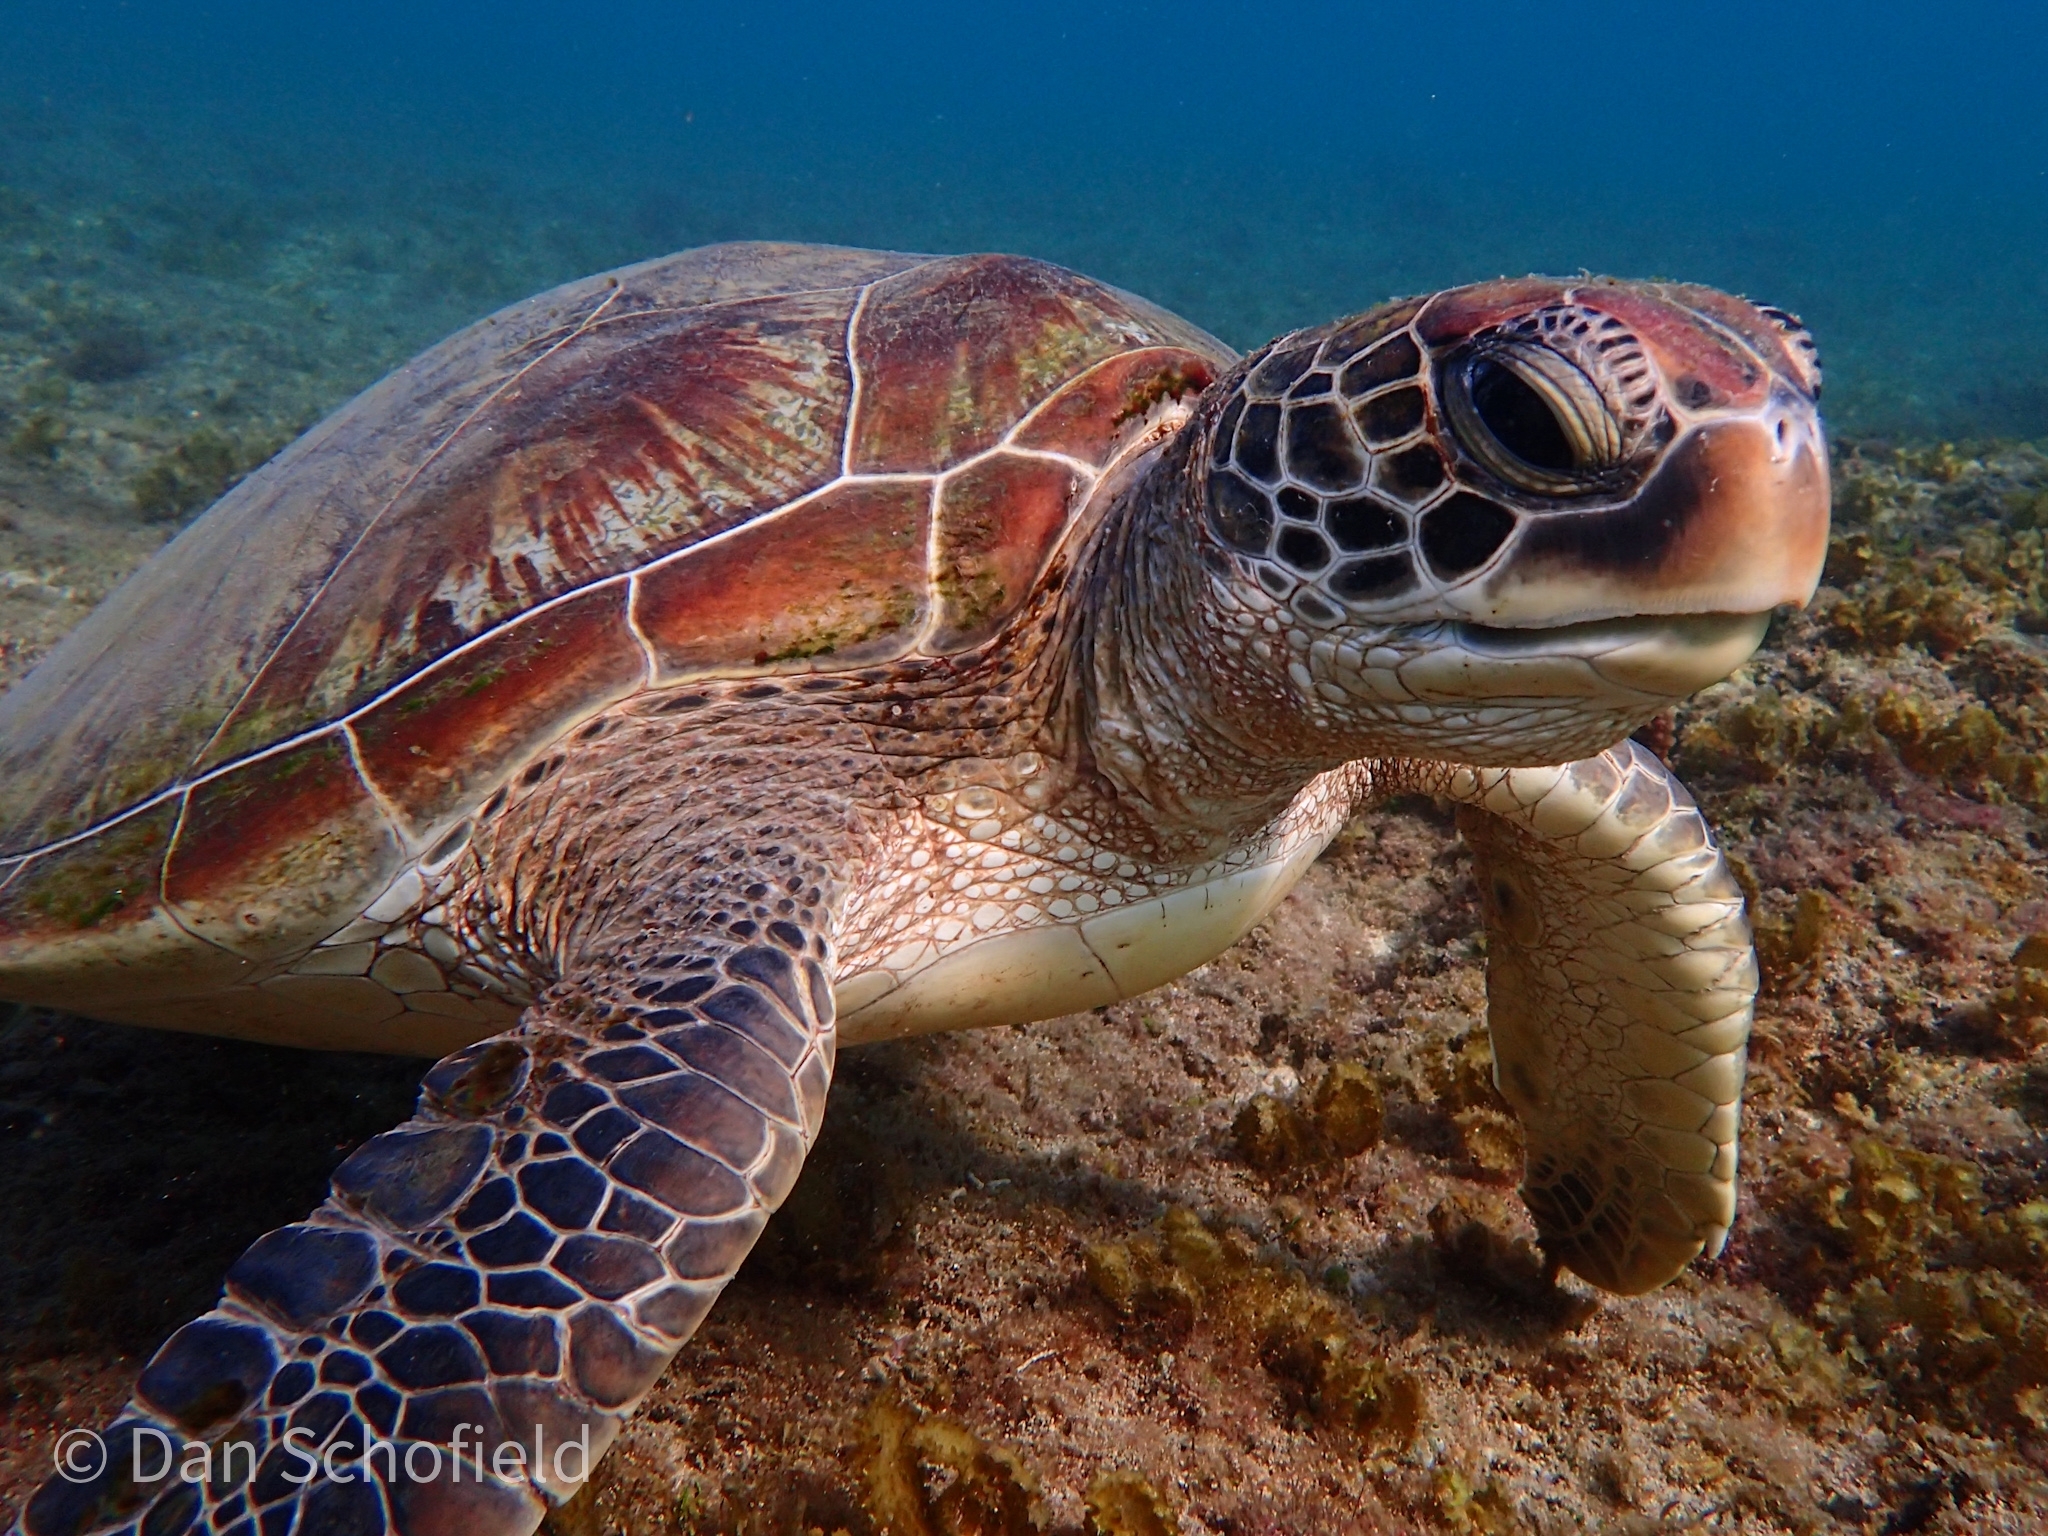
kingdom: Animalia
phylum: Chordata
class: Testudines
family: Cheloniidae
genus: Chelonia
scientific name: Chelonia mydas
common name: Green turtle
